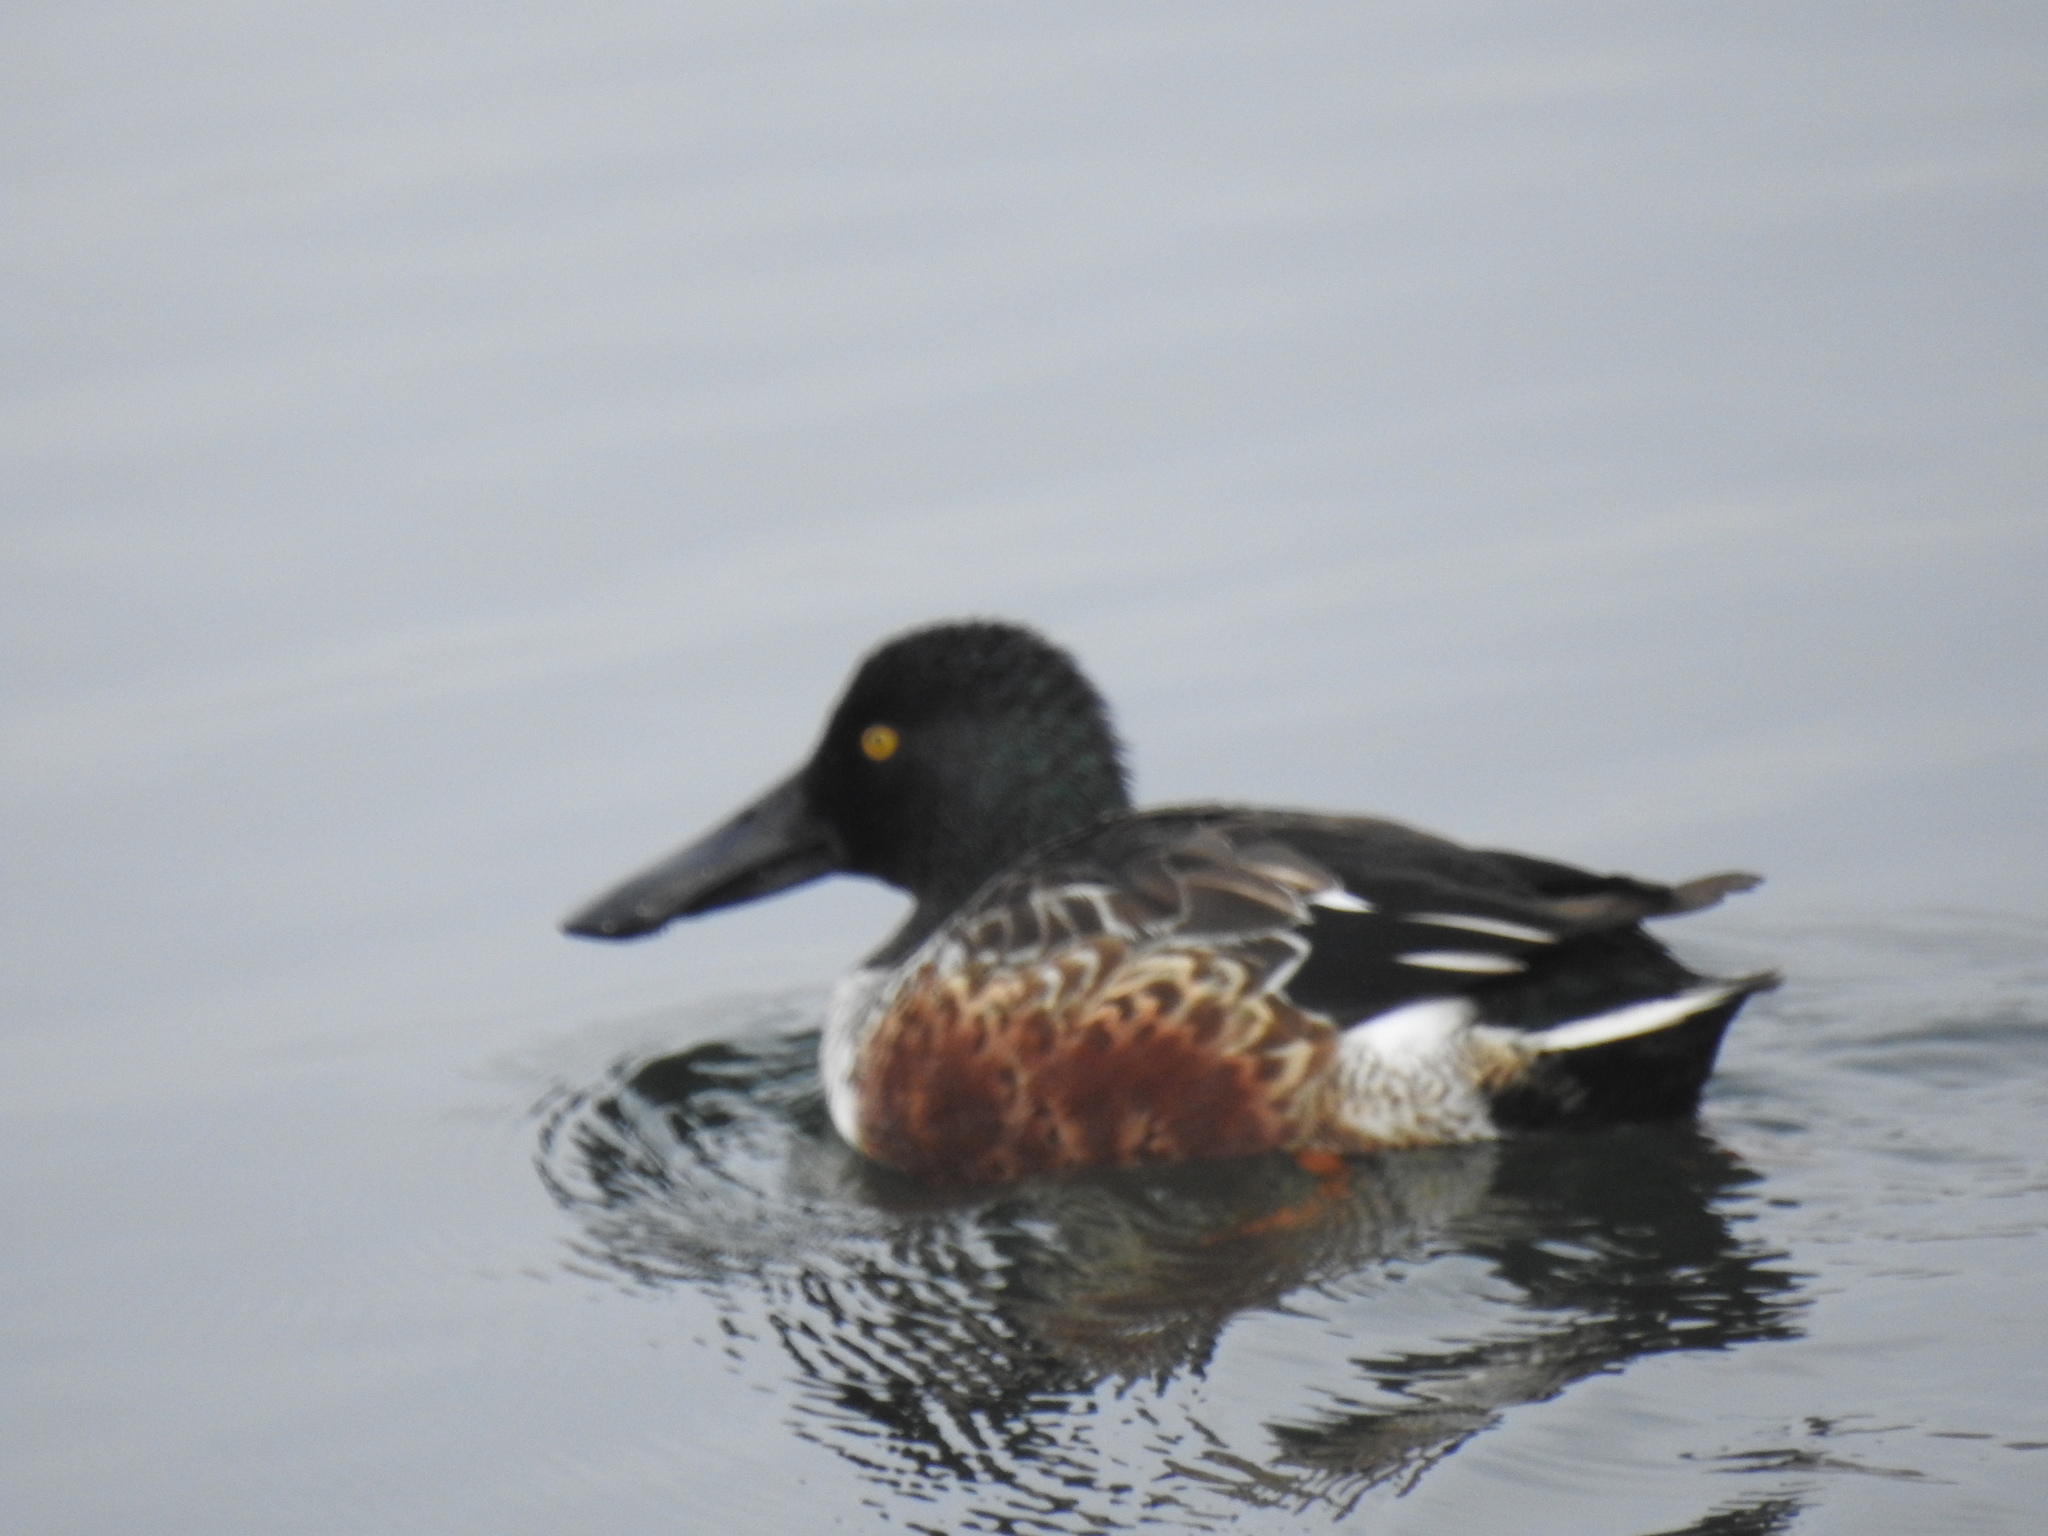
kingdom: Animalia
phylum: Chordata
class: Aves
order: Anseriformes
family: Anatidae
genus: Spatula
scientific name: Spatula clypeata
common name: Northern shoveler
